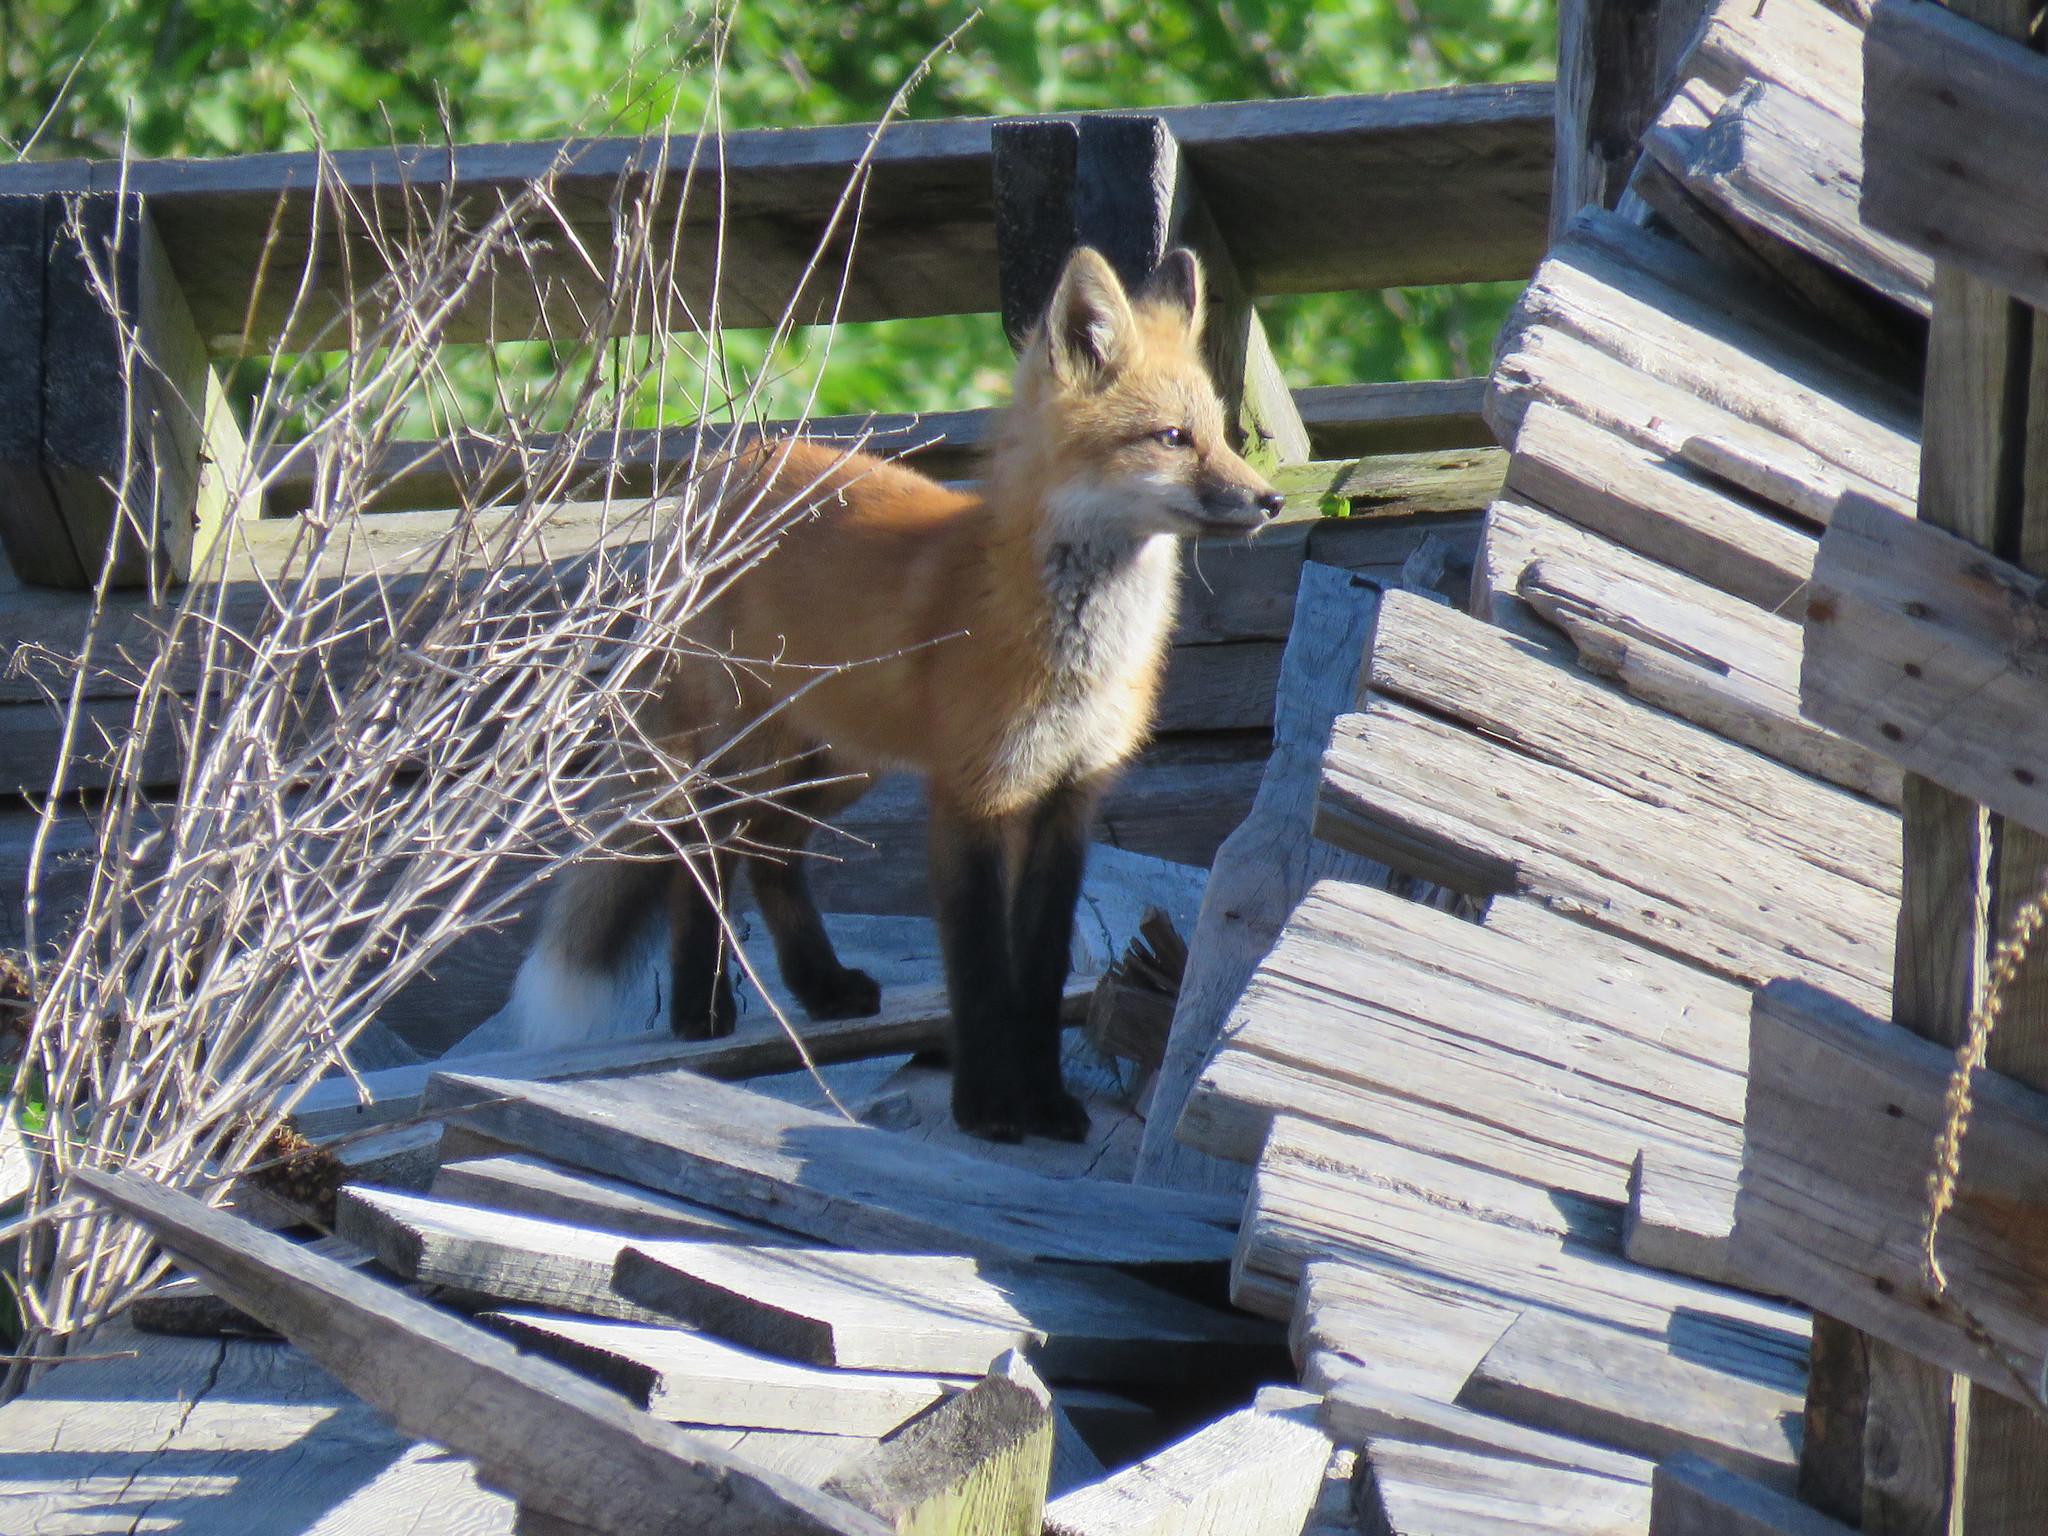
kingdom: Animalia
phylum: Chordata
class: Mammalia
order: Carnivora
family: Canidae
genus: Vulpes
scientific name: Vulpes vulpes
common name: Red fox
